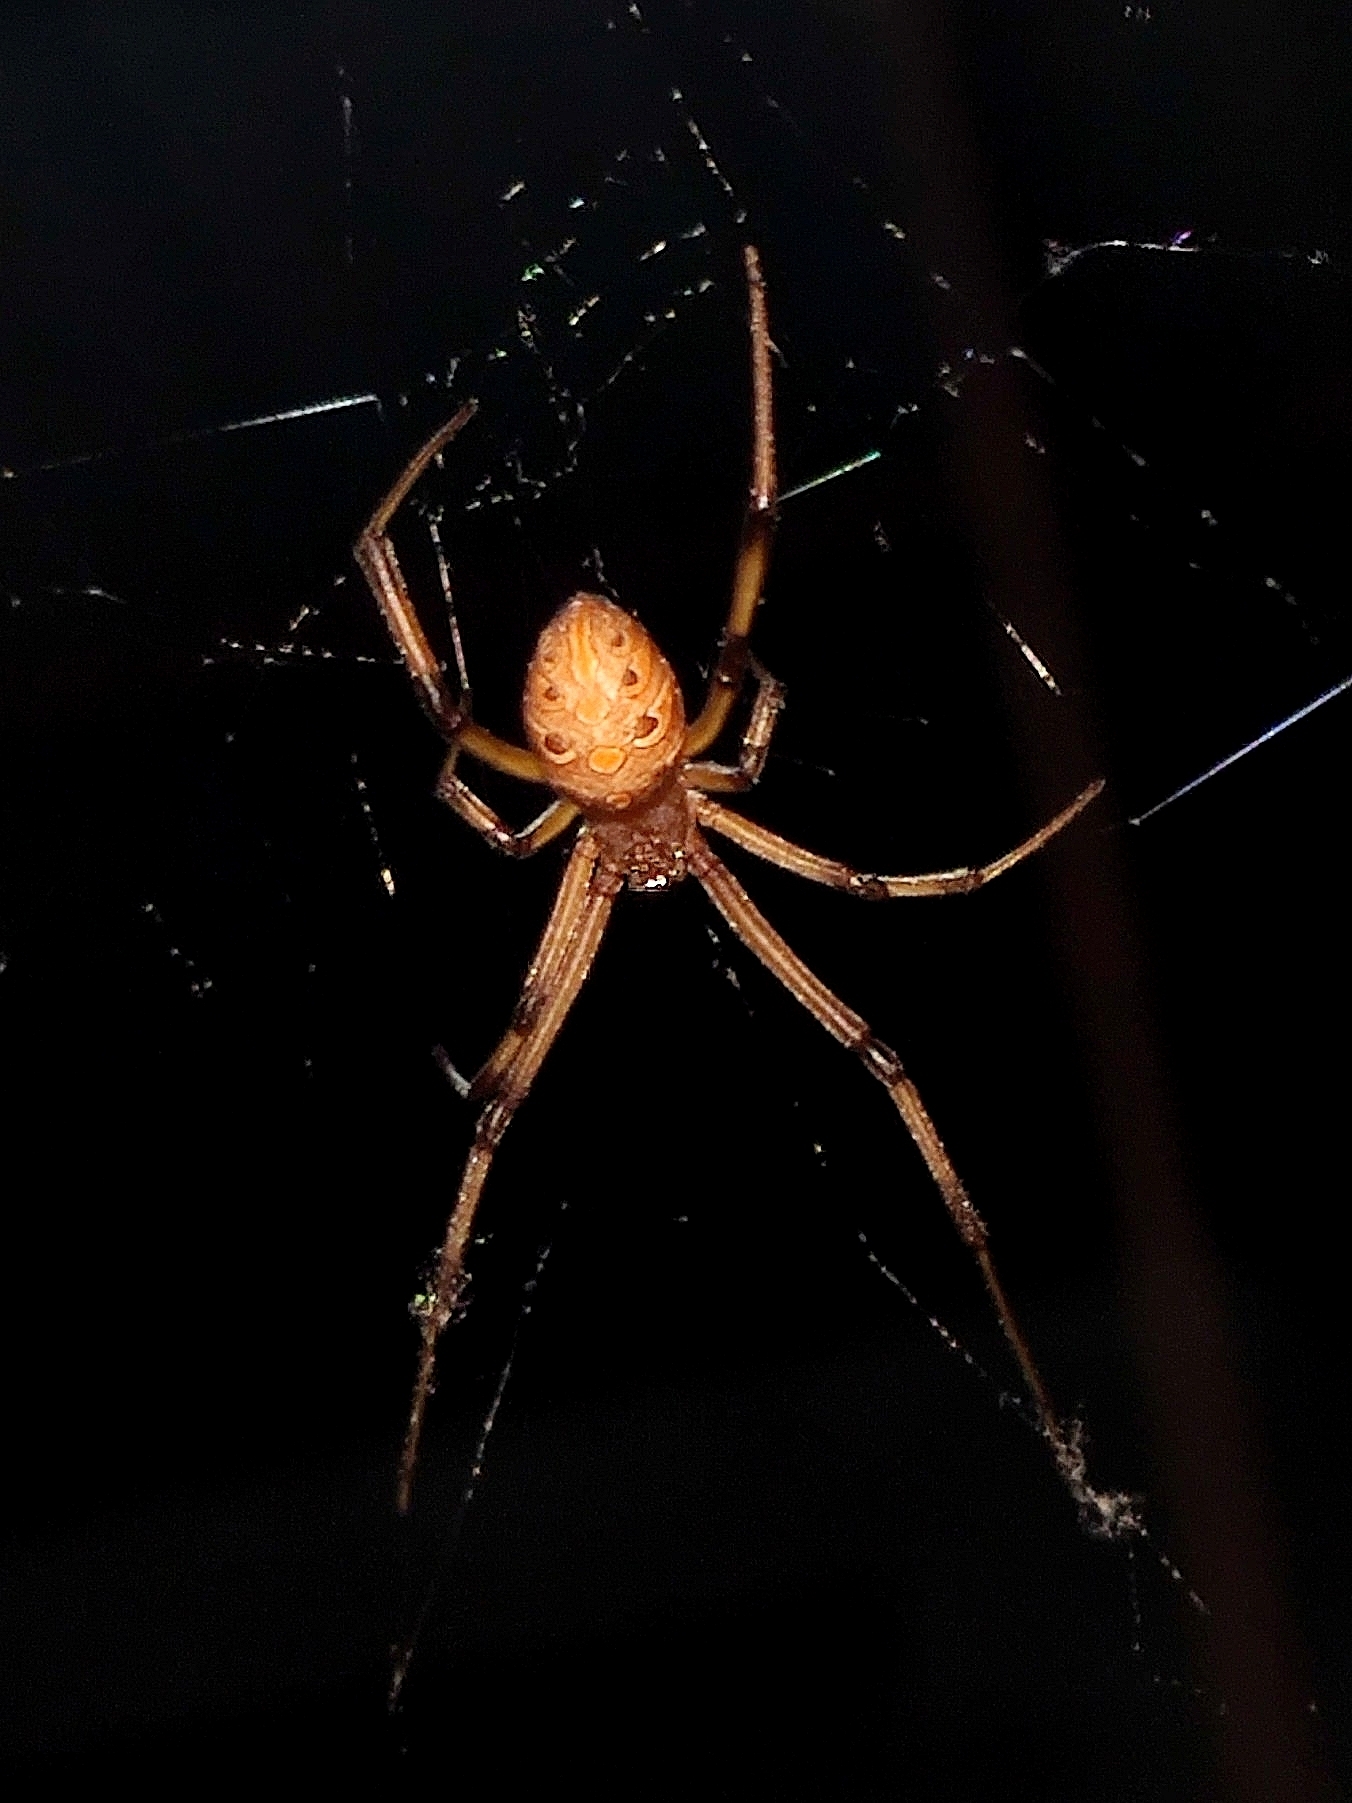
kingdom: Animalia
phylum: Arthropoda
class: Arachnida
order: Araneae
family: Theridiidae
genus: Latrodectus
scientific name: Latrodectus geometricus
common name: Brown widow spider
